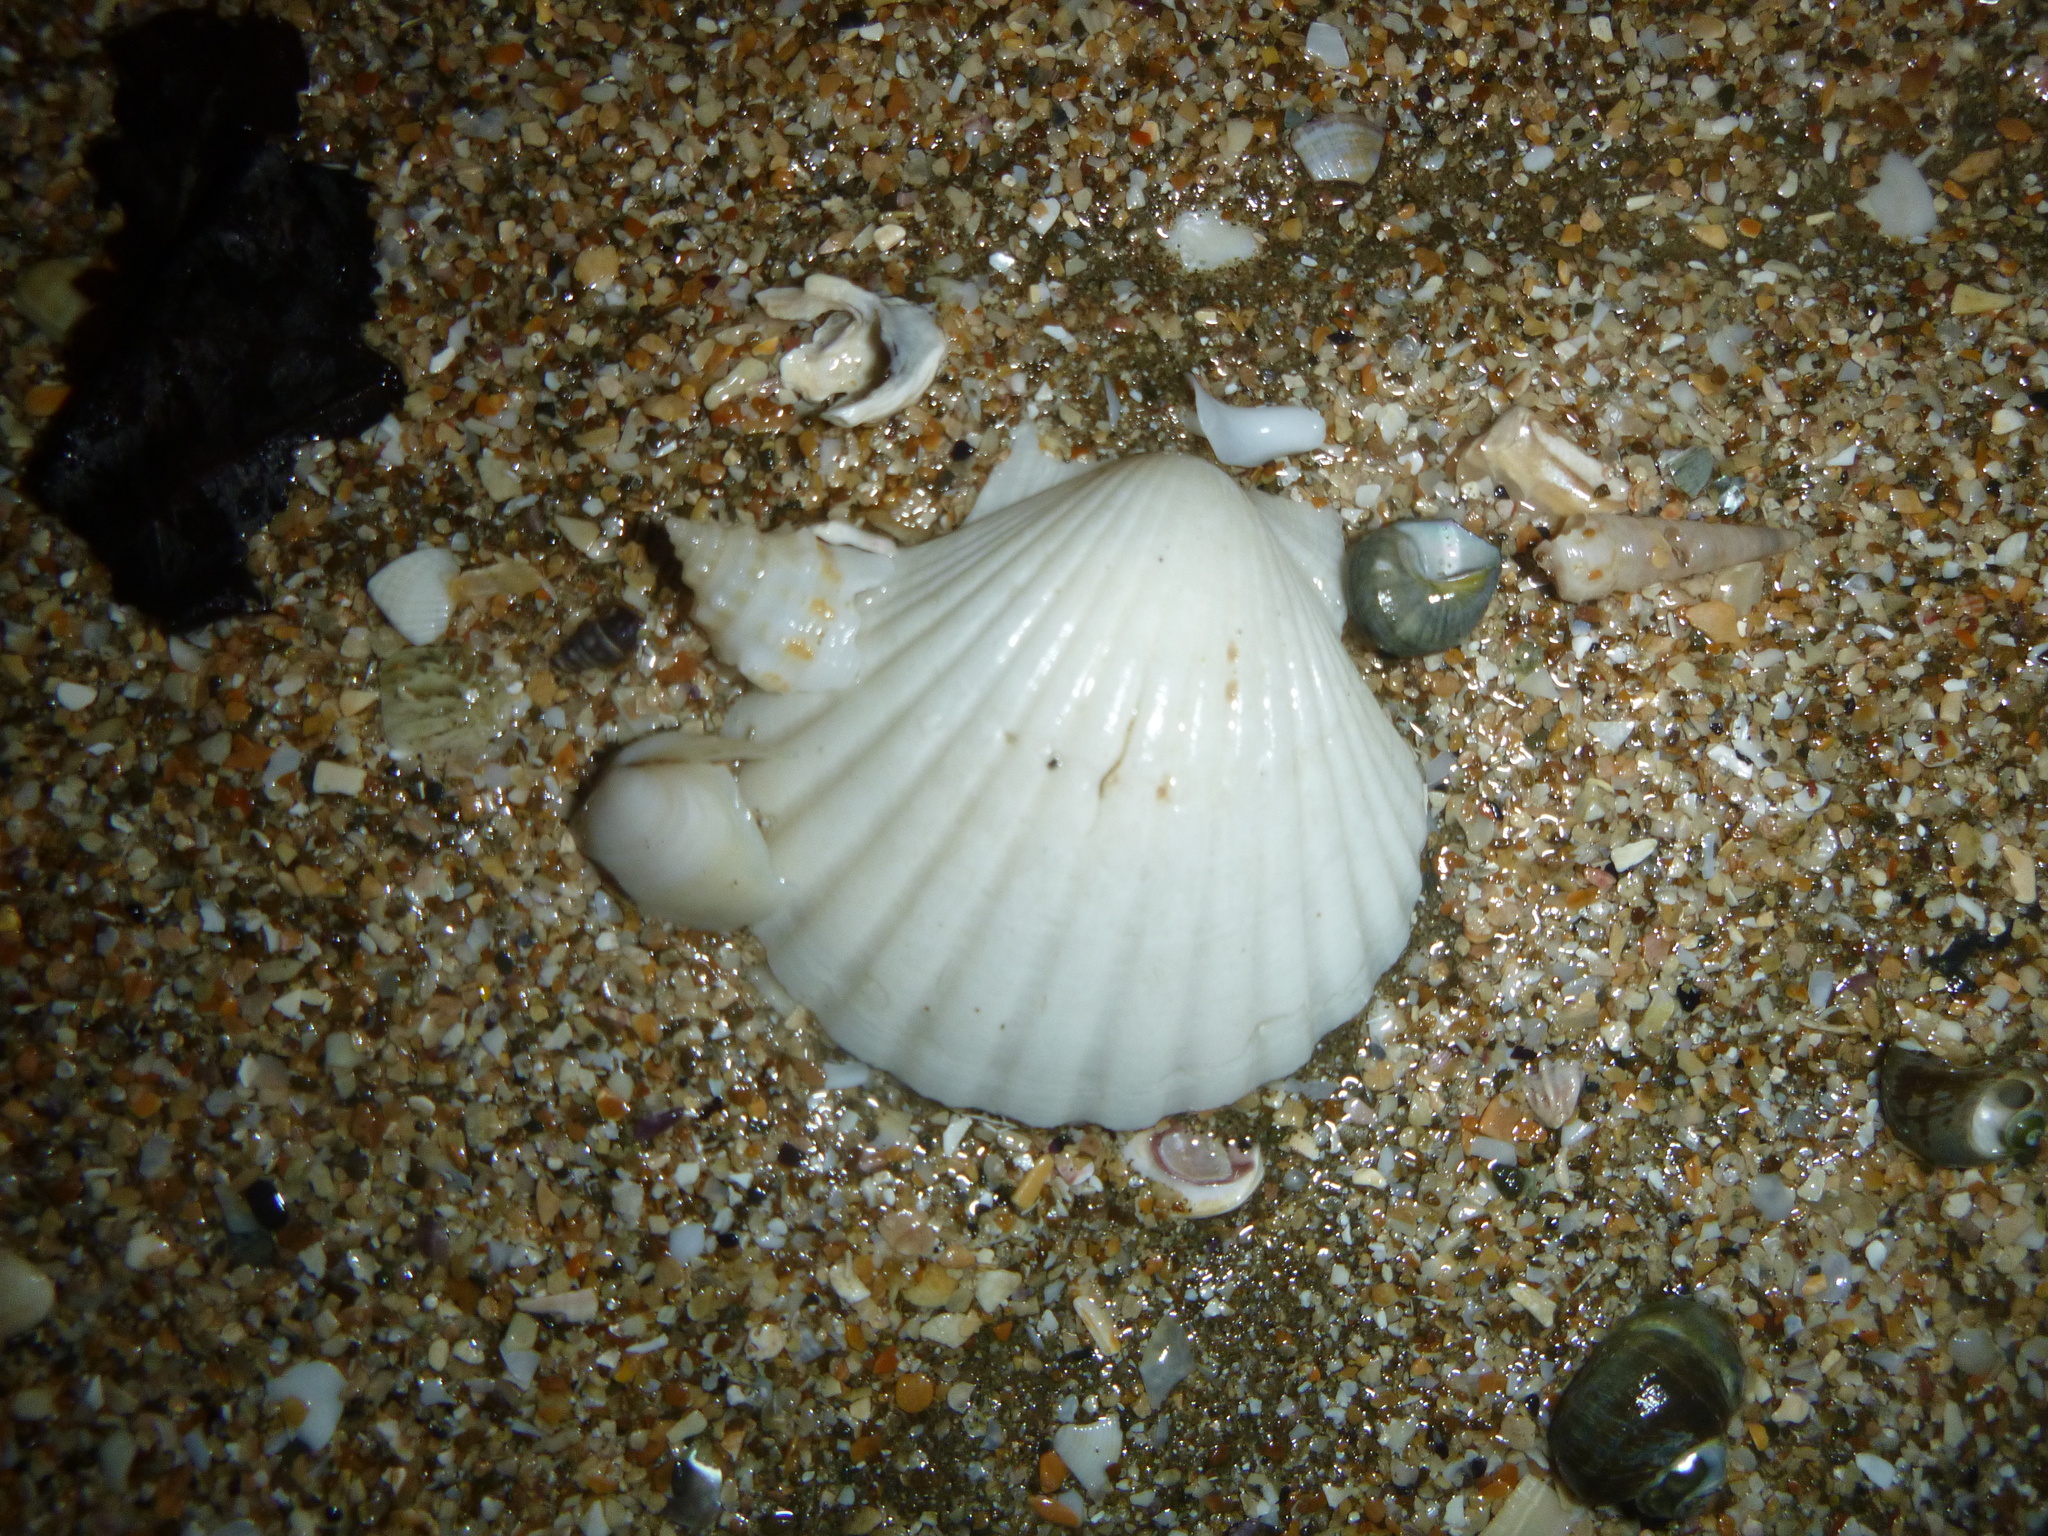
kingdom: Animalia
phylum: Mollusca
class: Bivalvia
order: Pectinida
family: Pectinidae
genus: Pecten
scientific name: Pecten novaezelandiae
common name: New zealand scallop
